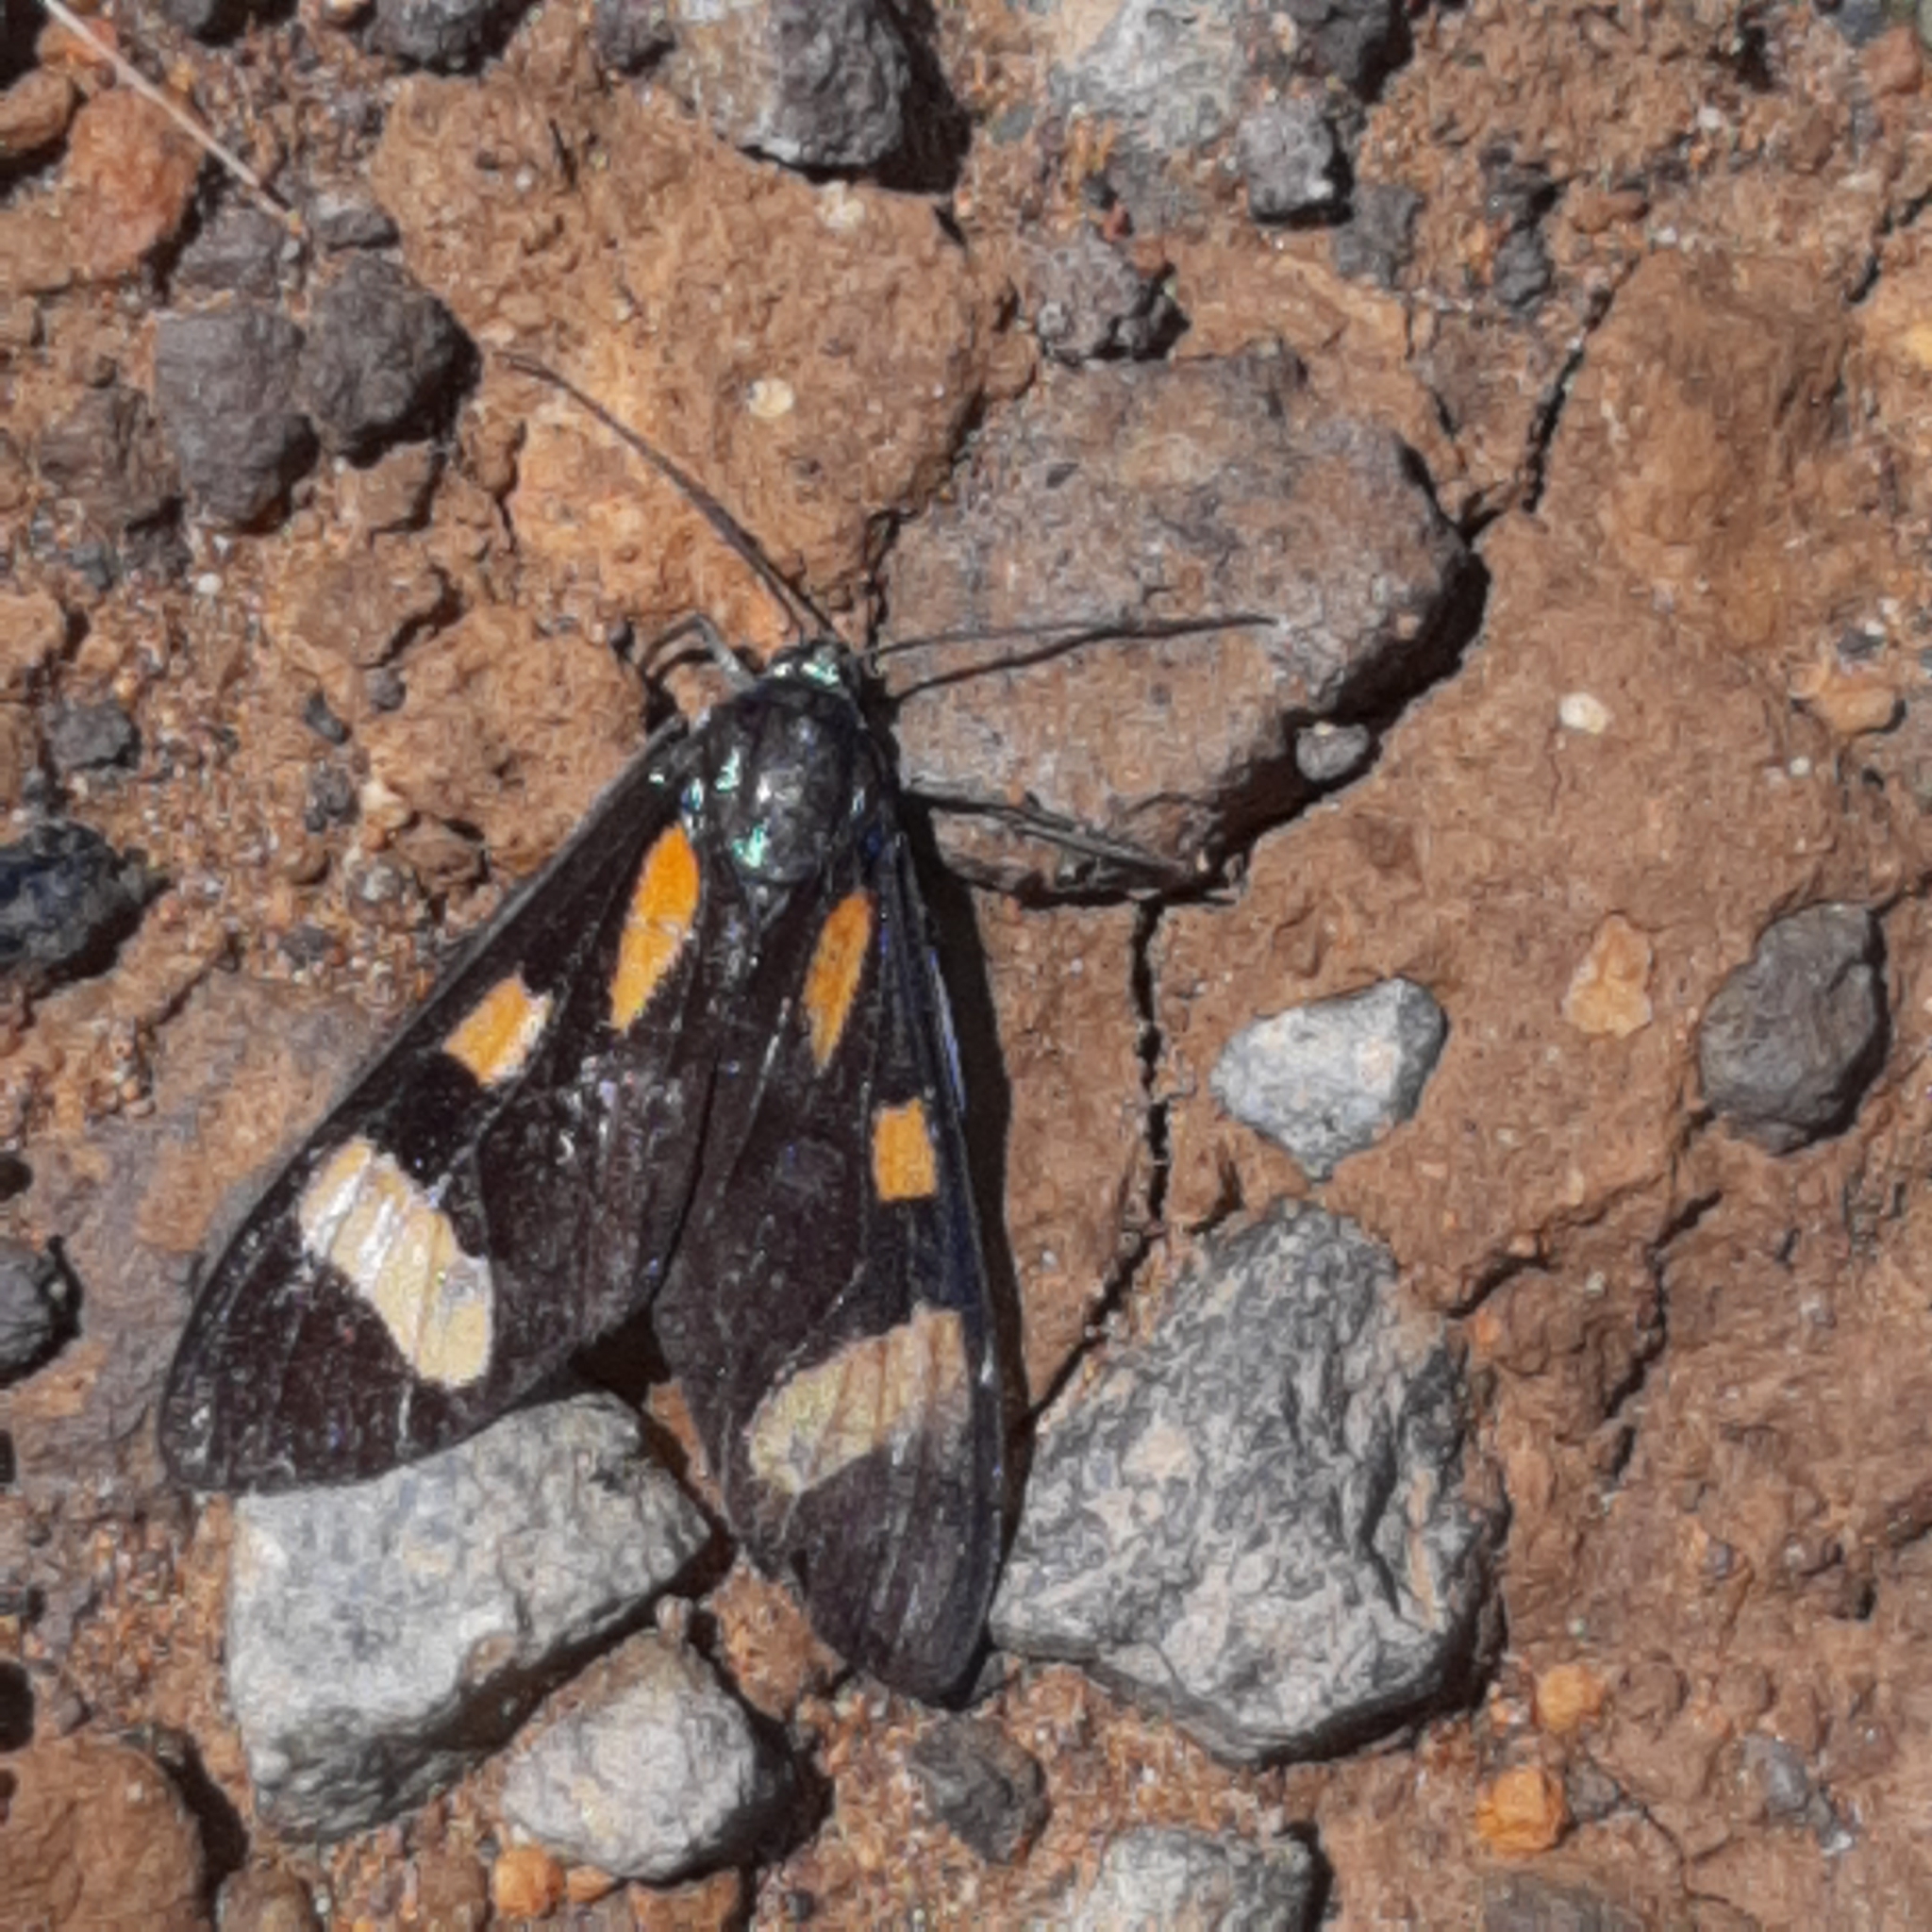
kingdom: Animalia
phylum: Arthropoda
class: Insecta
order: Lepidoptera
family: Erebidae
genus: Cyanopepla
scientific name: Cyanopepla arrogans
